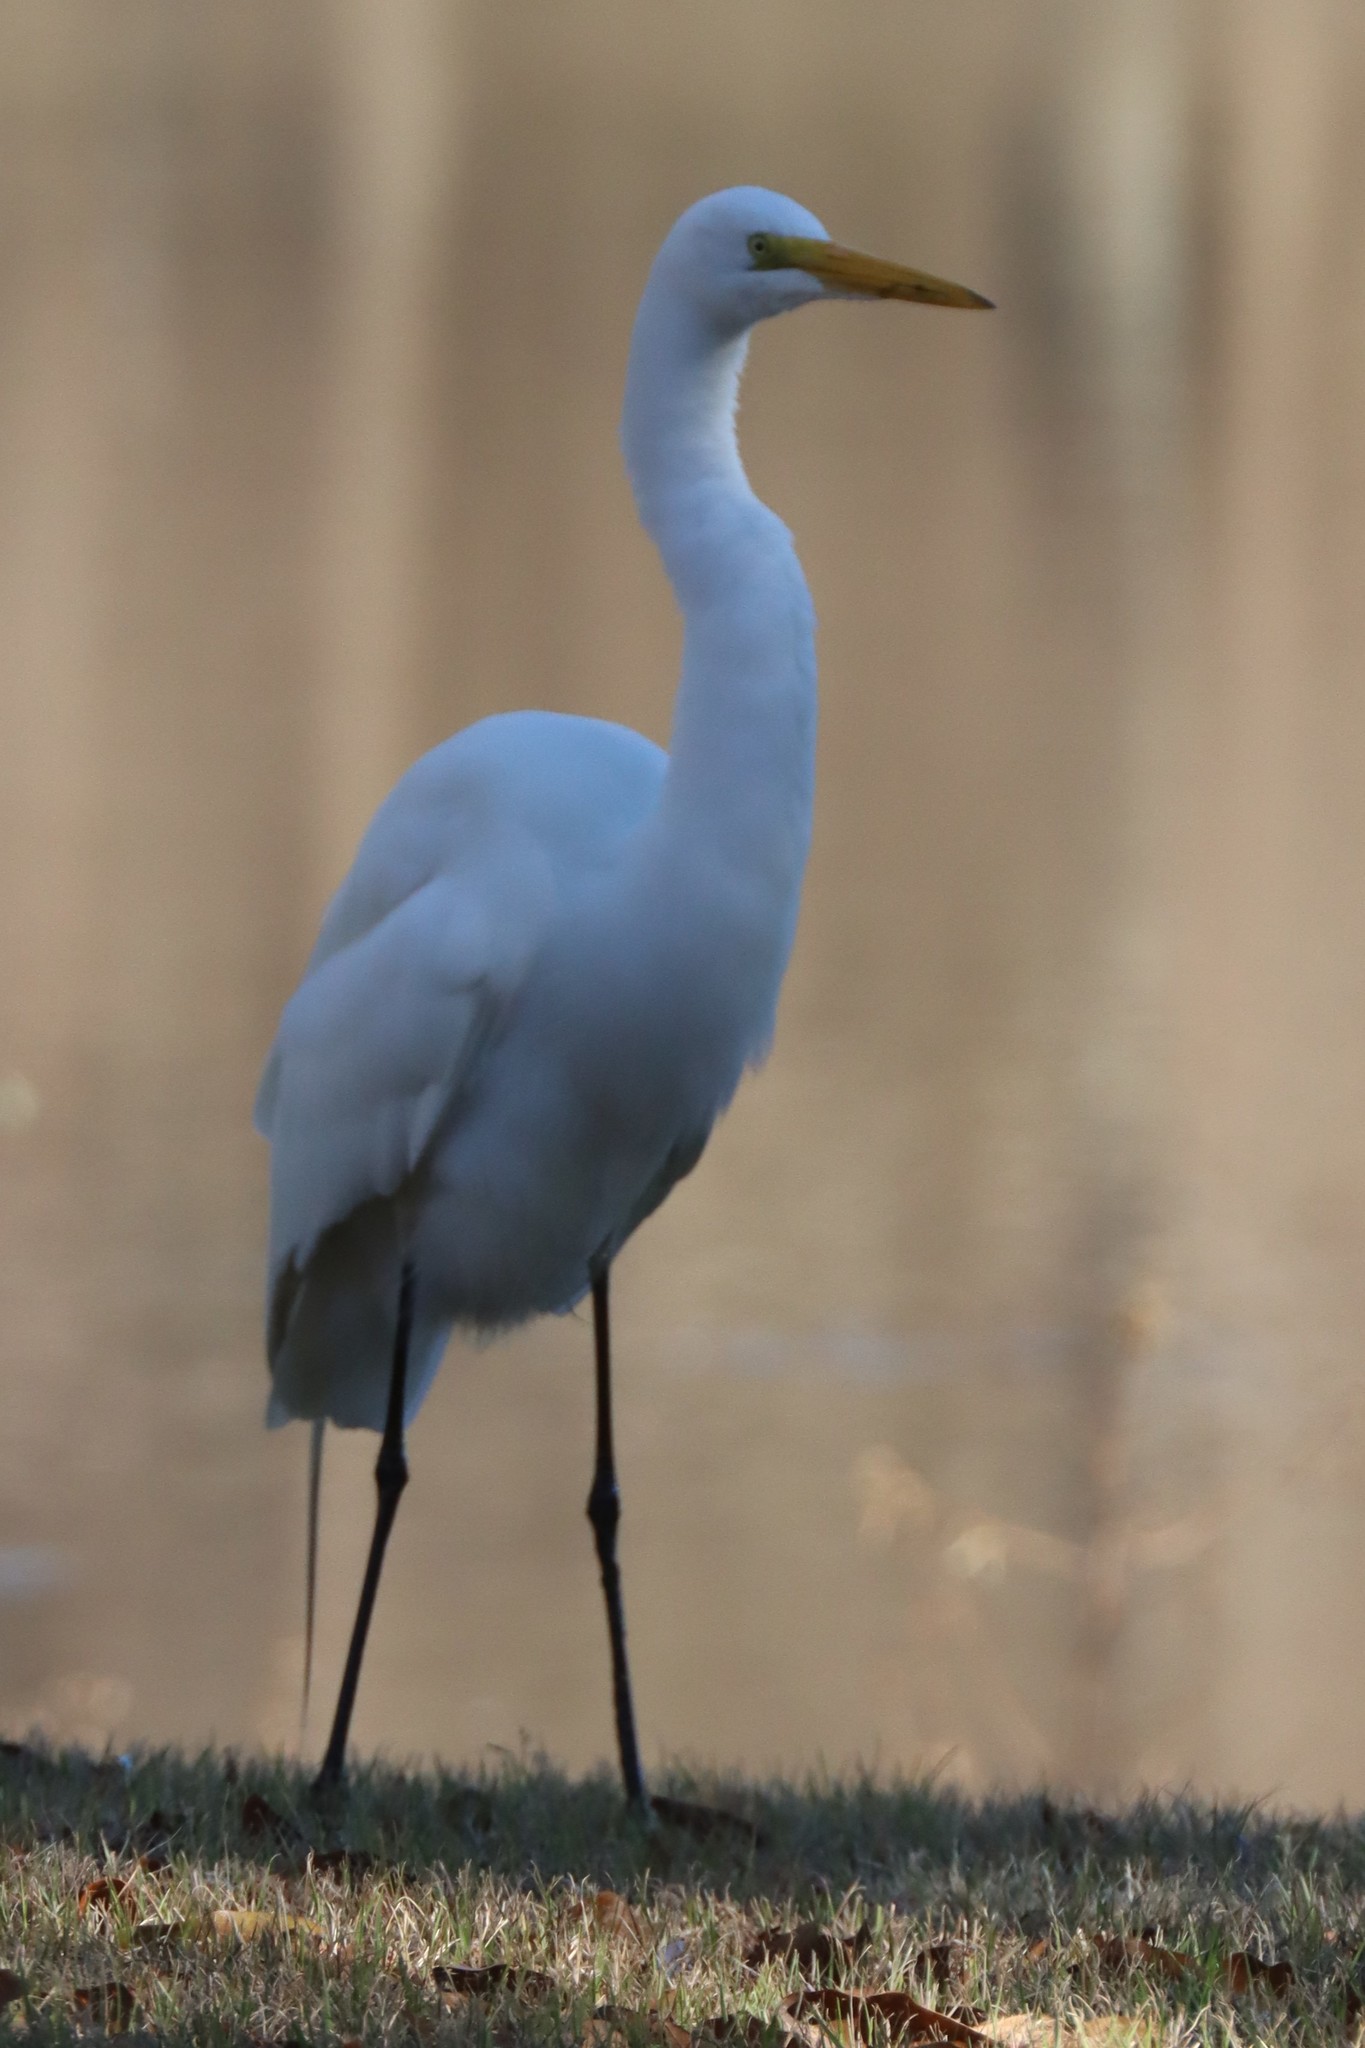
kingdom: Animalia
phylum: Chordata
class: Aves
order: Pelecaniformes
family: Ardeidae
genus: Ardea
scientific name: Ardea alba
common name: Great egret
